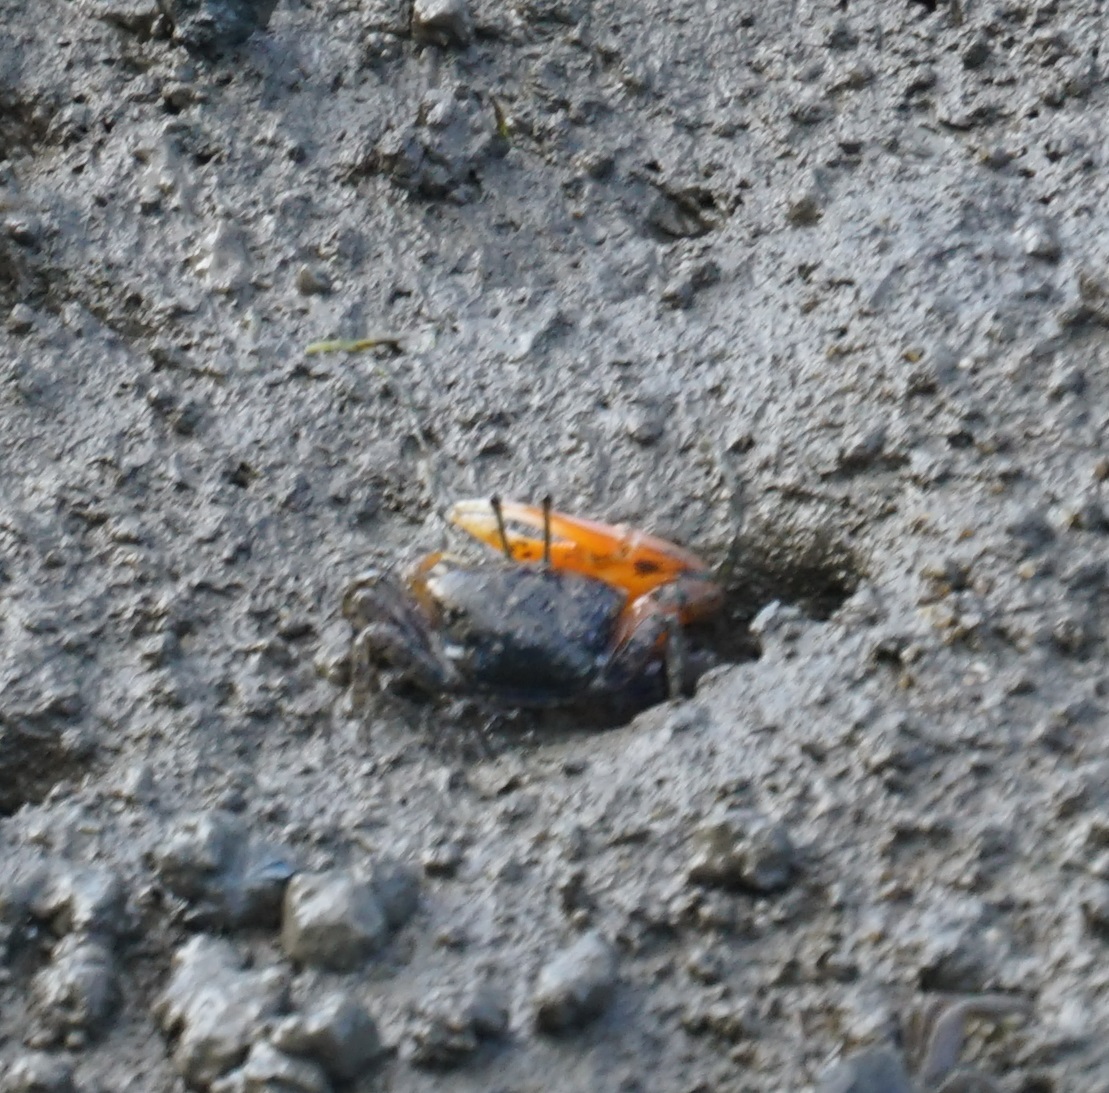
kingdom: Animalia
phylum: Arthropoda
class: Malacostraca
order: Decapoda
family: Ocypodidae
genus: Gelasimus
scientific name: Gelasimus vomeris
